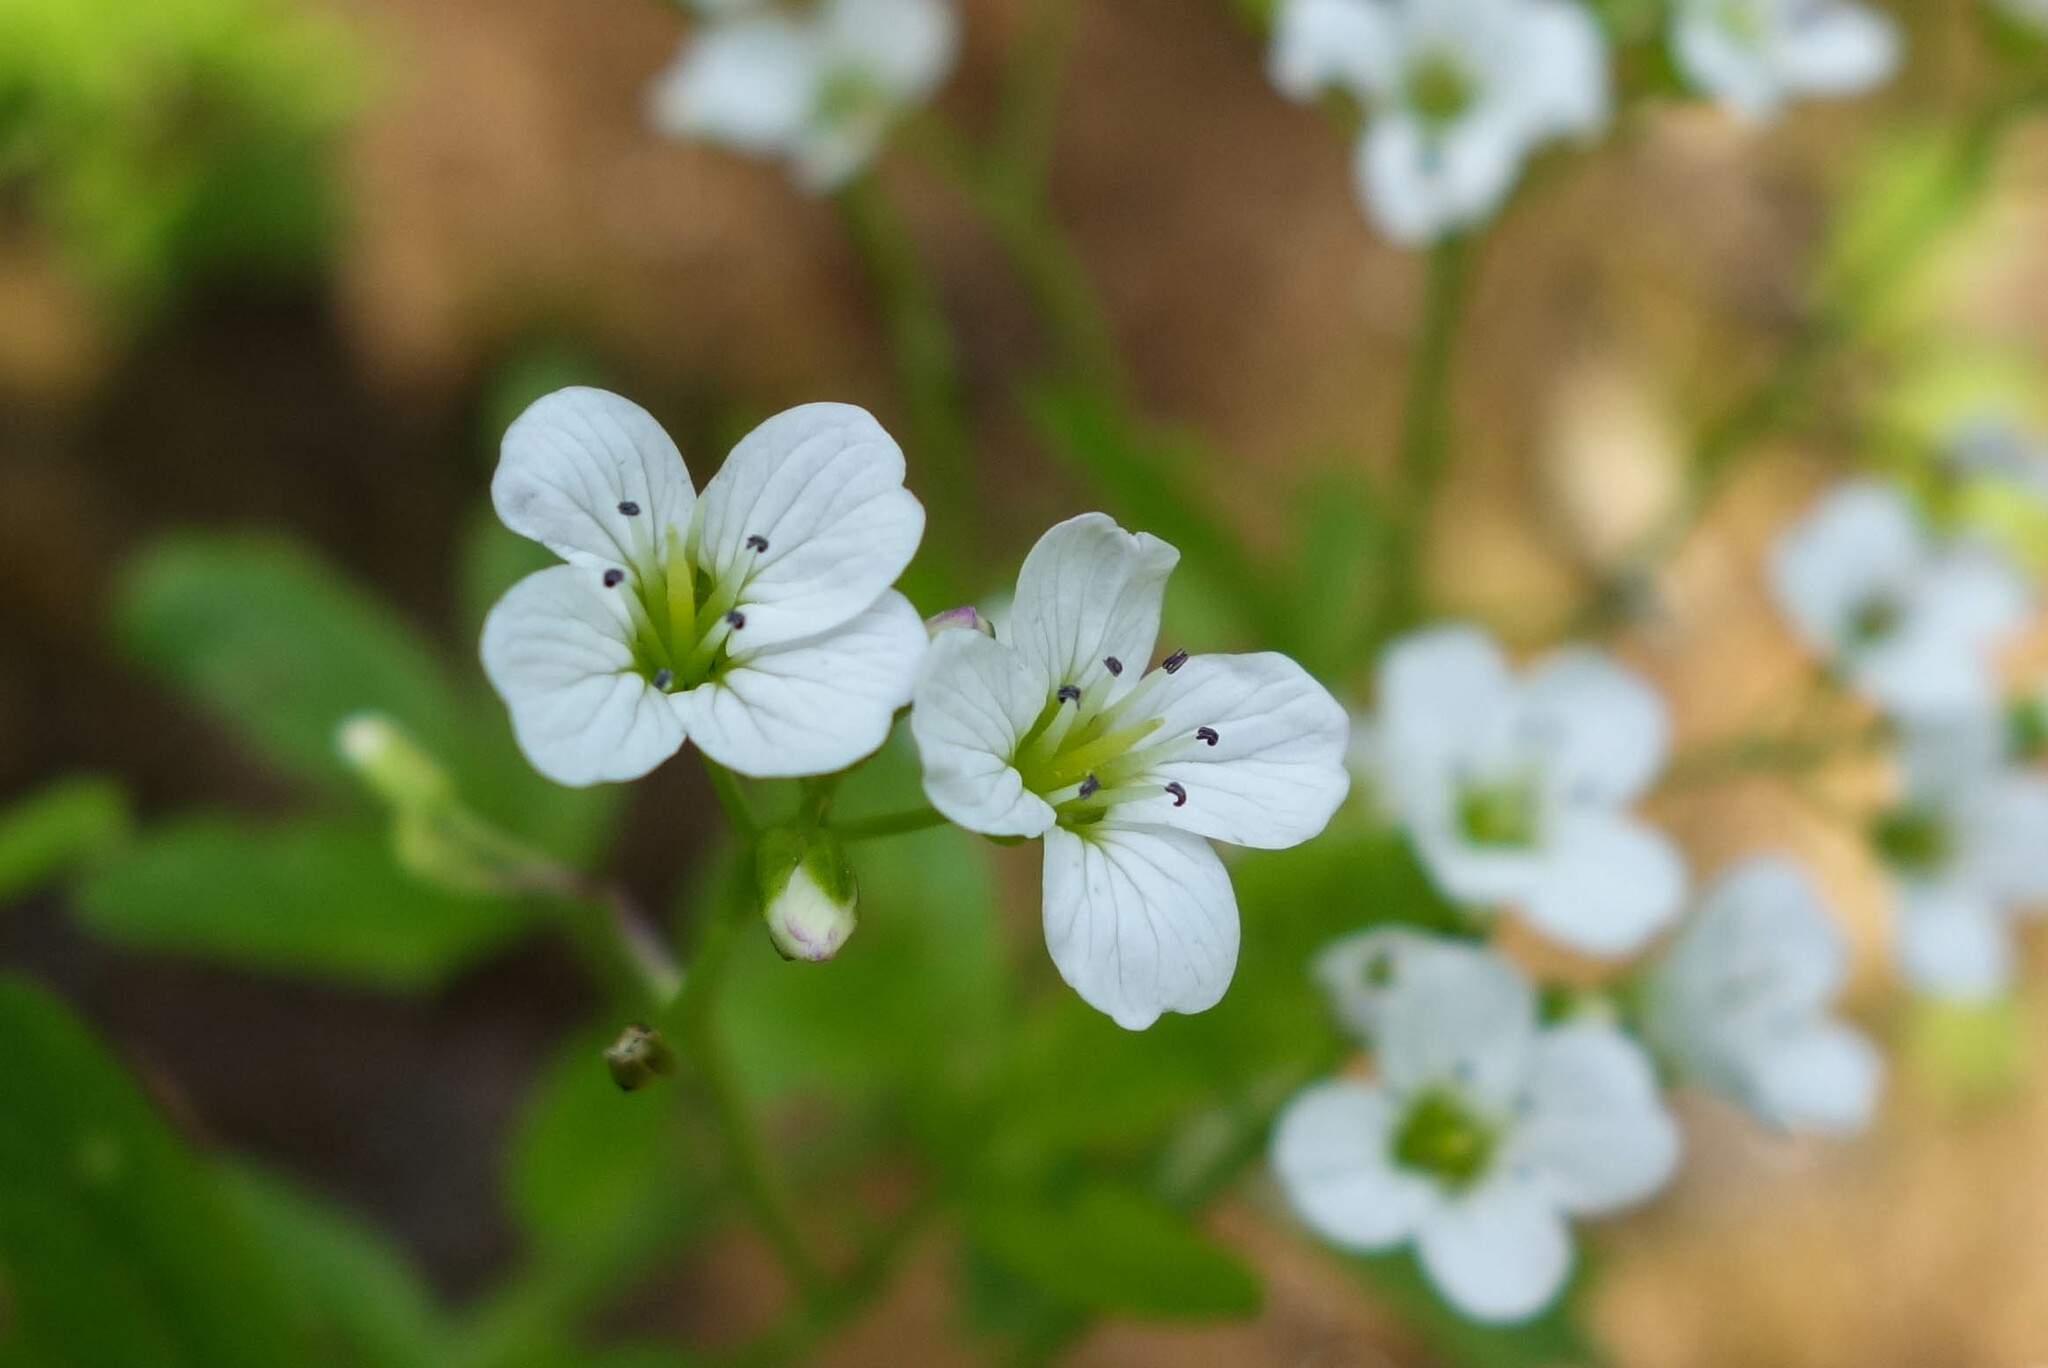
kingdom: Plantae
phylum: Tracheophyta
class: Magnoliopsida
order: Brassicales
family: Brassicaceae
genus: Cardamine
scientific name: Cardamine amara
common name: Large bitter-cress
